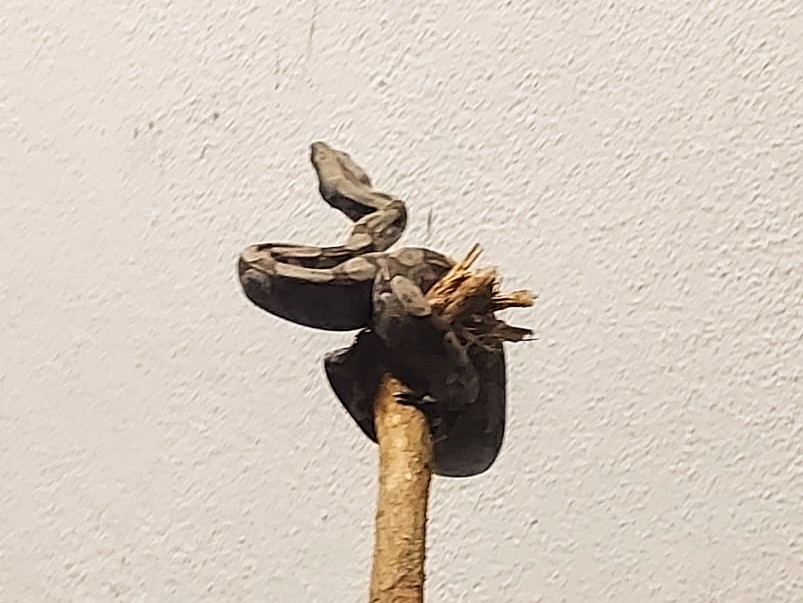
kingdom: Animalia
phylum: Chordata
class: Squamata
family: Boidae
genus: Boa
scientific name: Boa constrictor
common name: Boa constrictor
